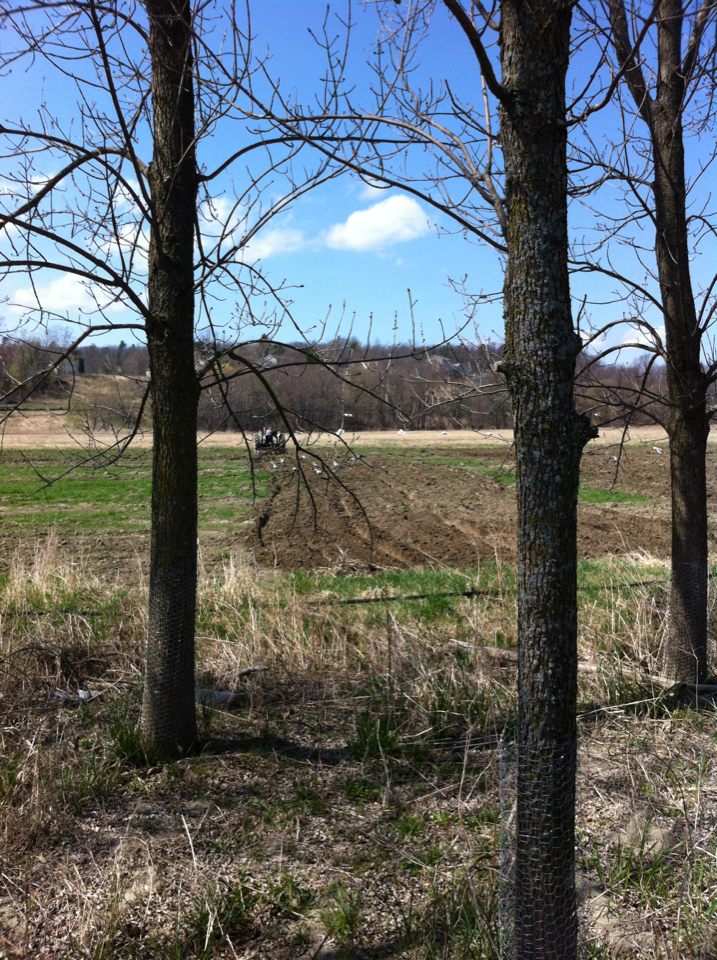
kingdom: Animalia
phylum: Chordata
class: Aves
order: Charadriiformes
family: Laridae
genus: Larus
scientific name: Larus
